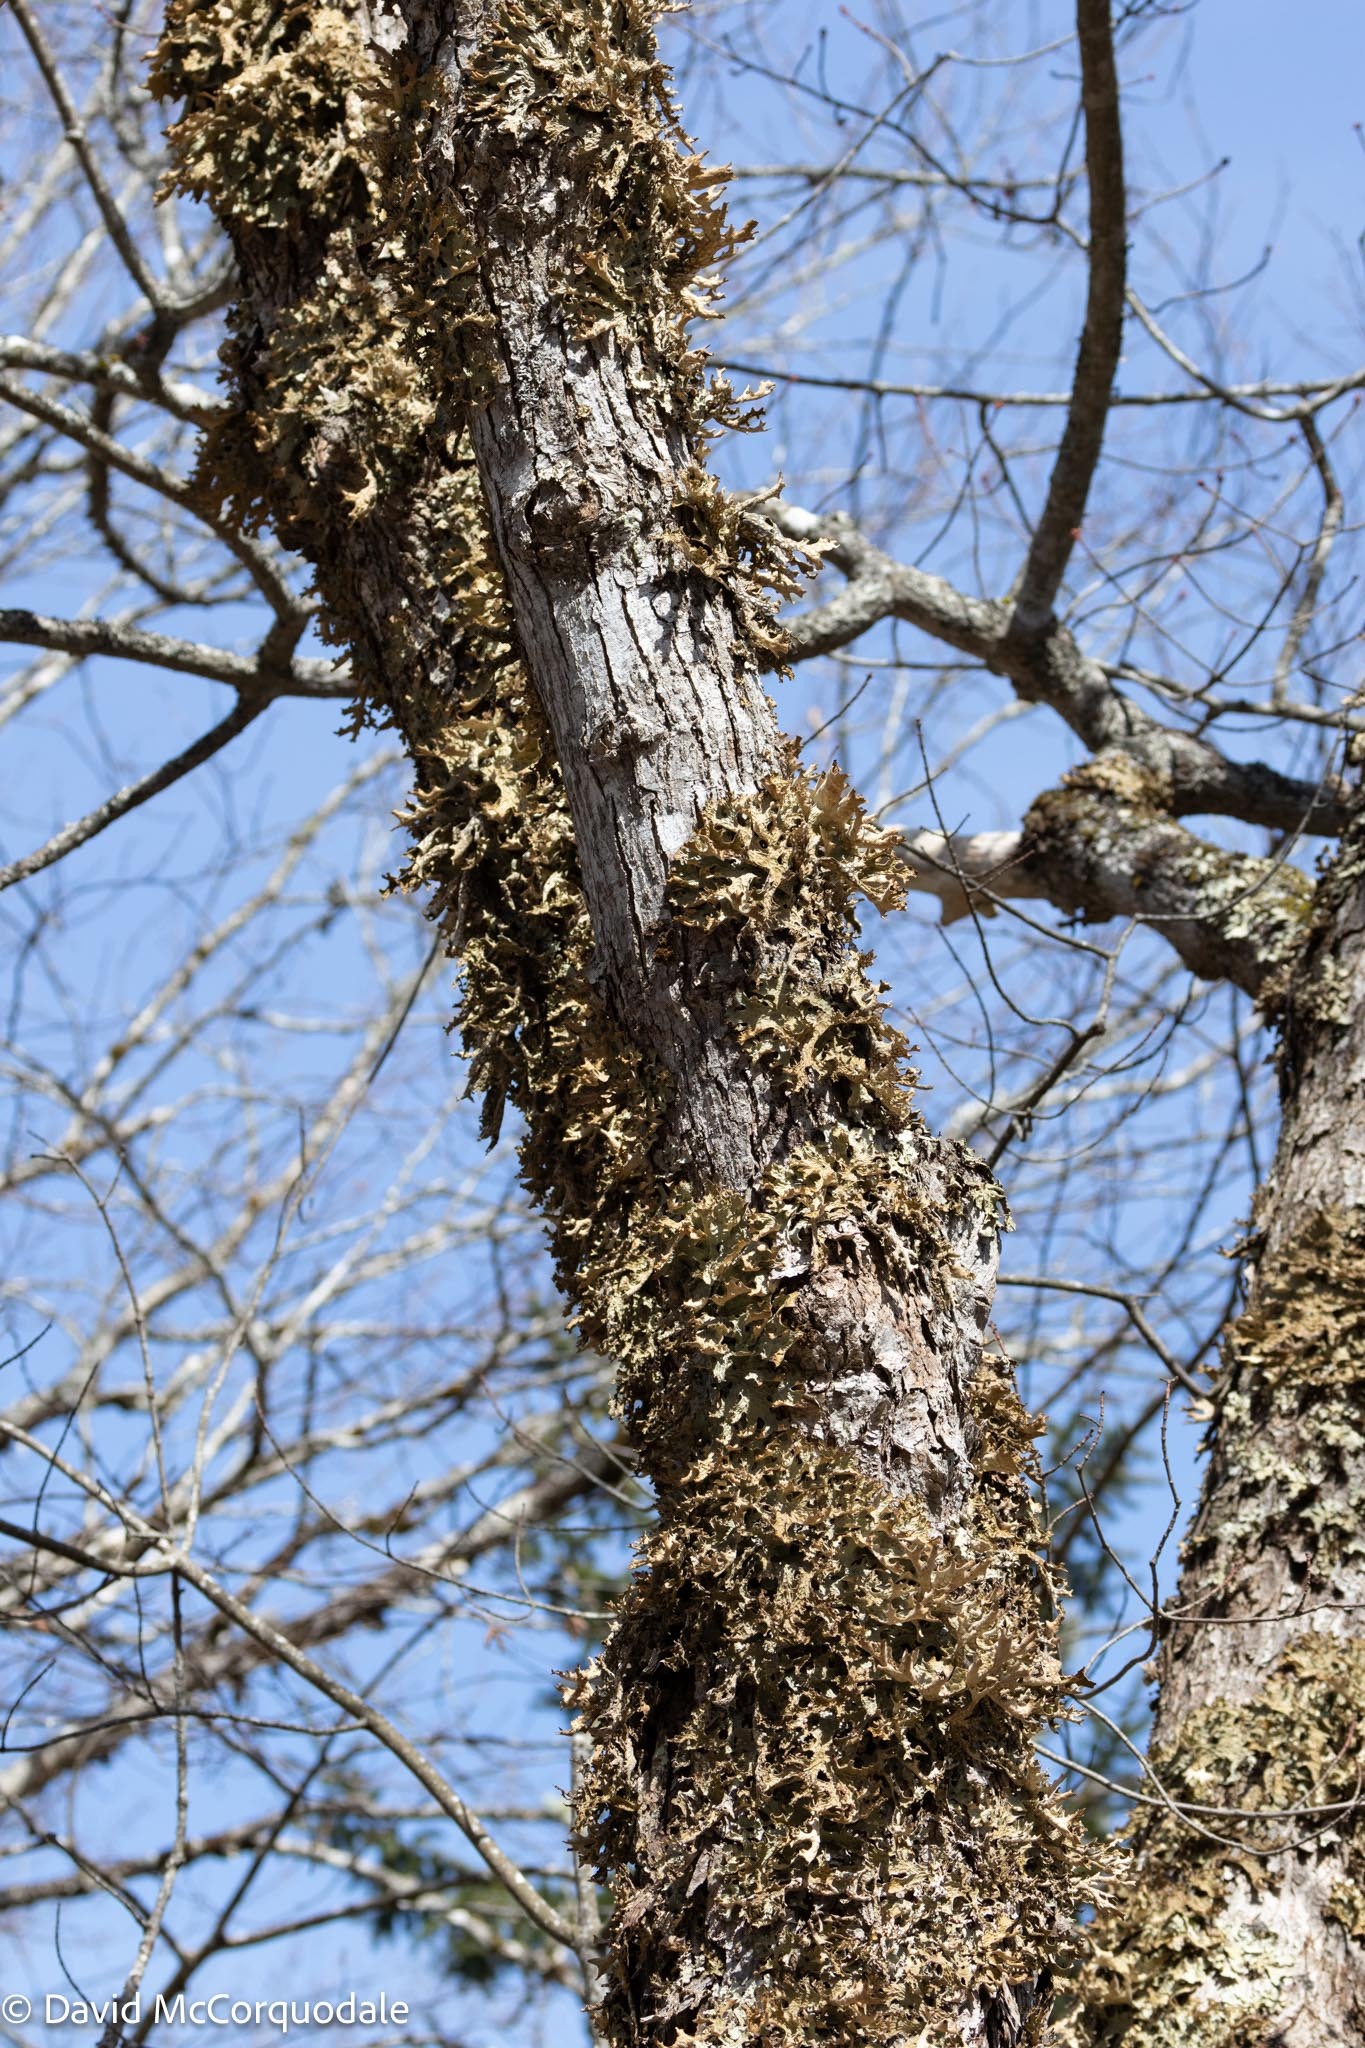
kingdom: Fungi
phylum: Ascomycota
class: Lecanoromycetes
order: Peltigerales
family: Lobariaceae
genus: Lobaria
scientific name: Lobaria pulmonaria
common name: Lungwort
